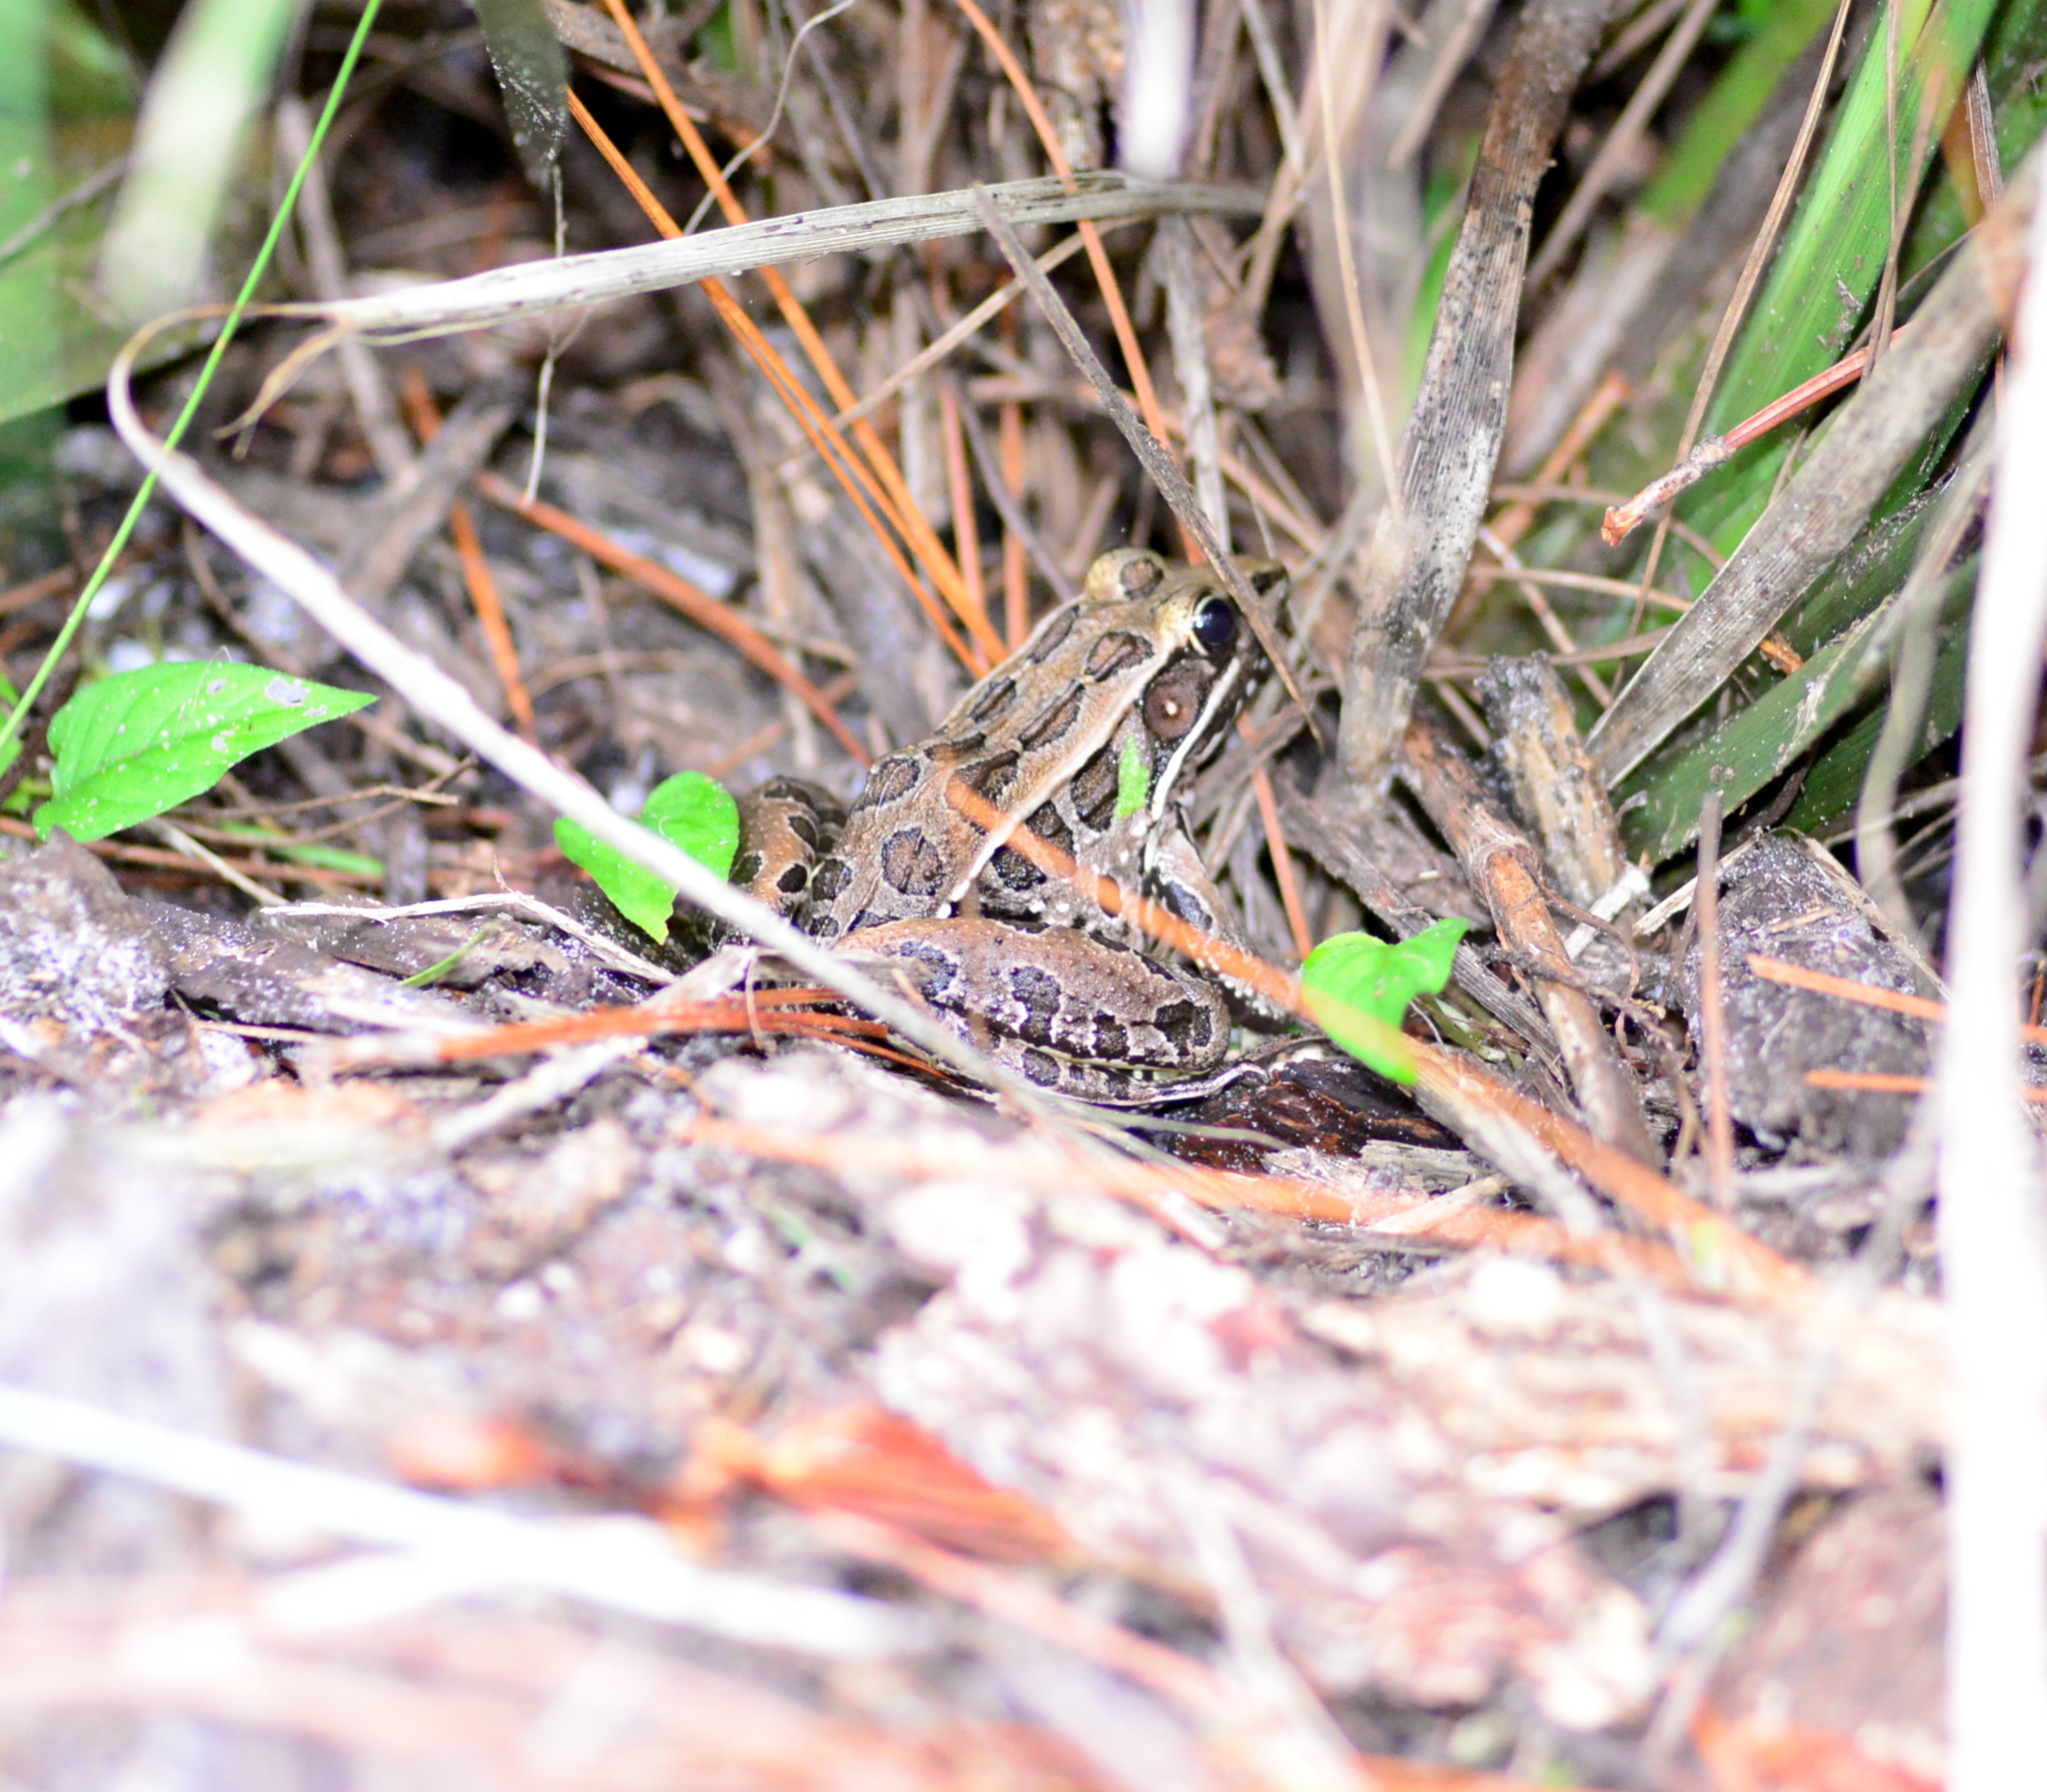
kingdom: Animalia
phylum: Chordata
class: Amphibia
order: Anura
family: Ranidae
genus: Lithobates
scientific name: Lithobates sphenocephalus
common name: Southern leopard frog
